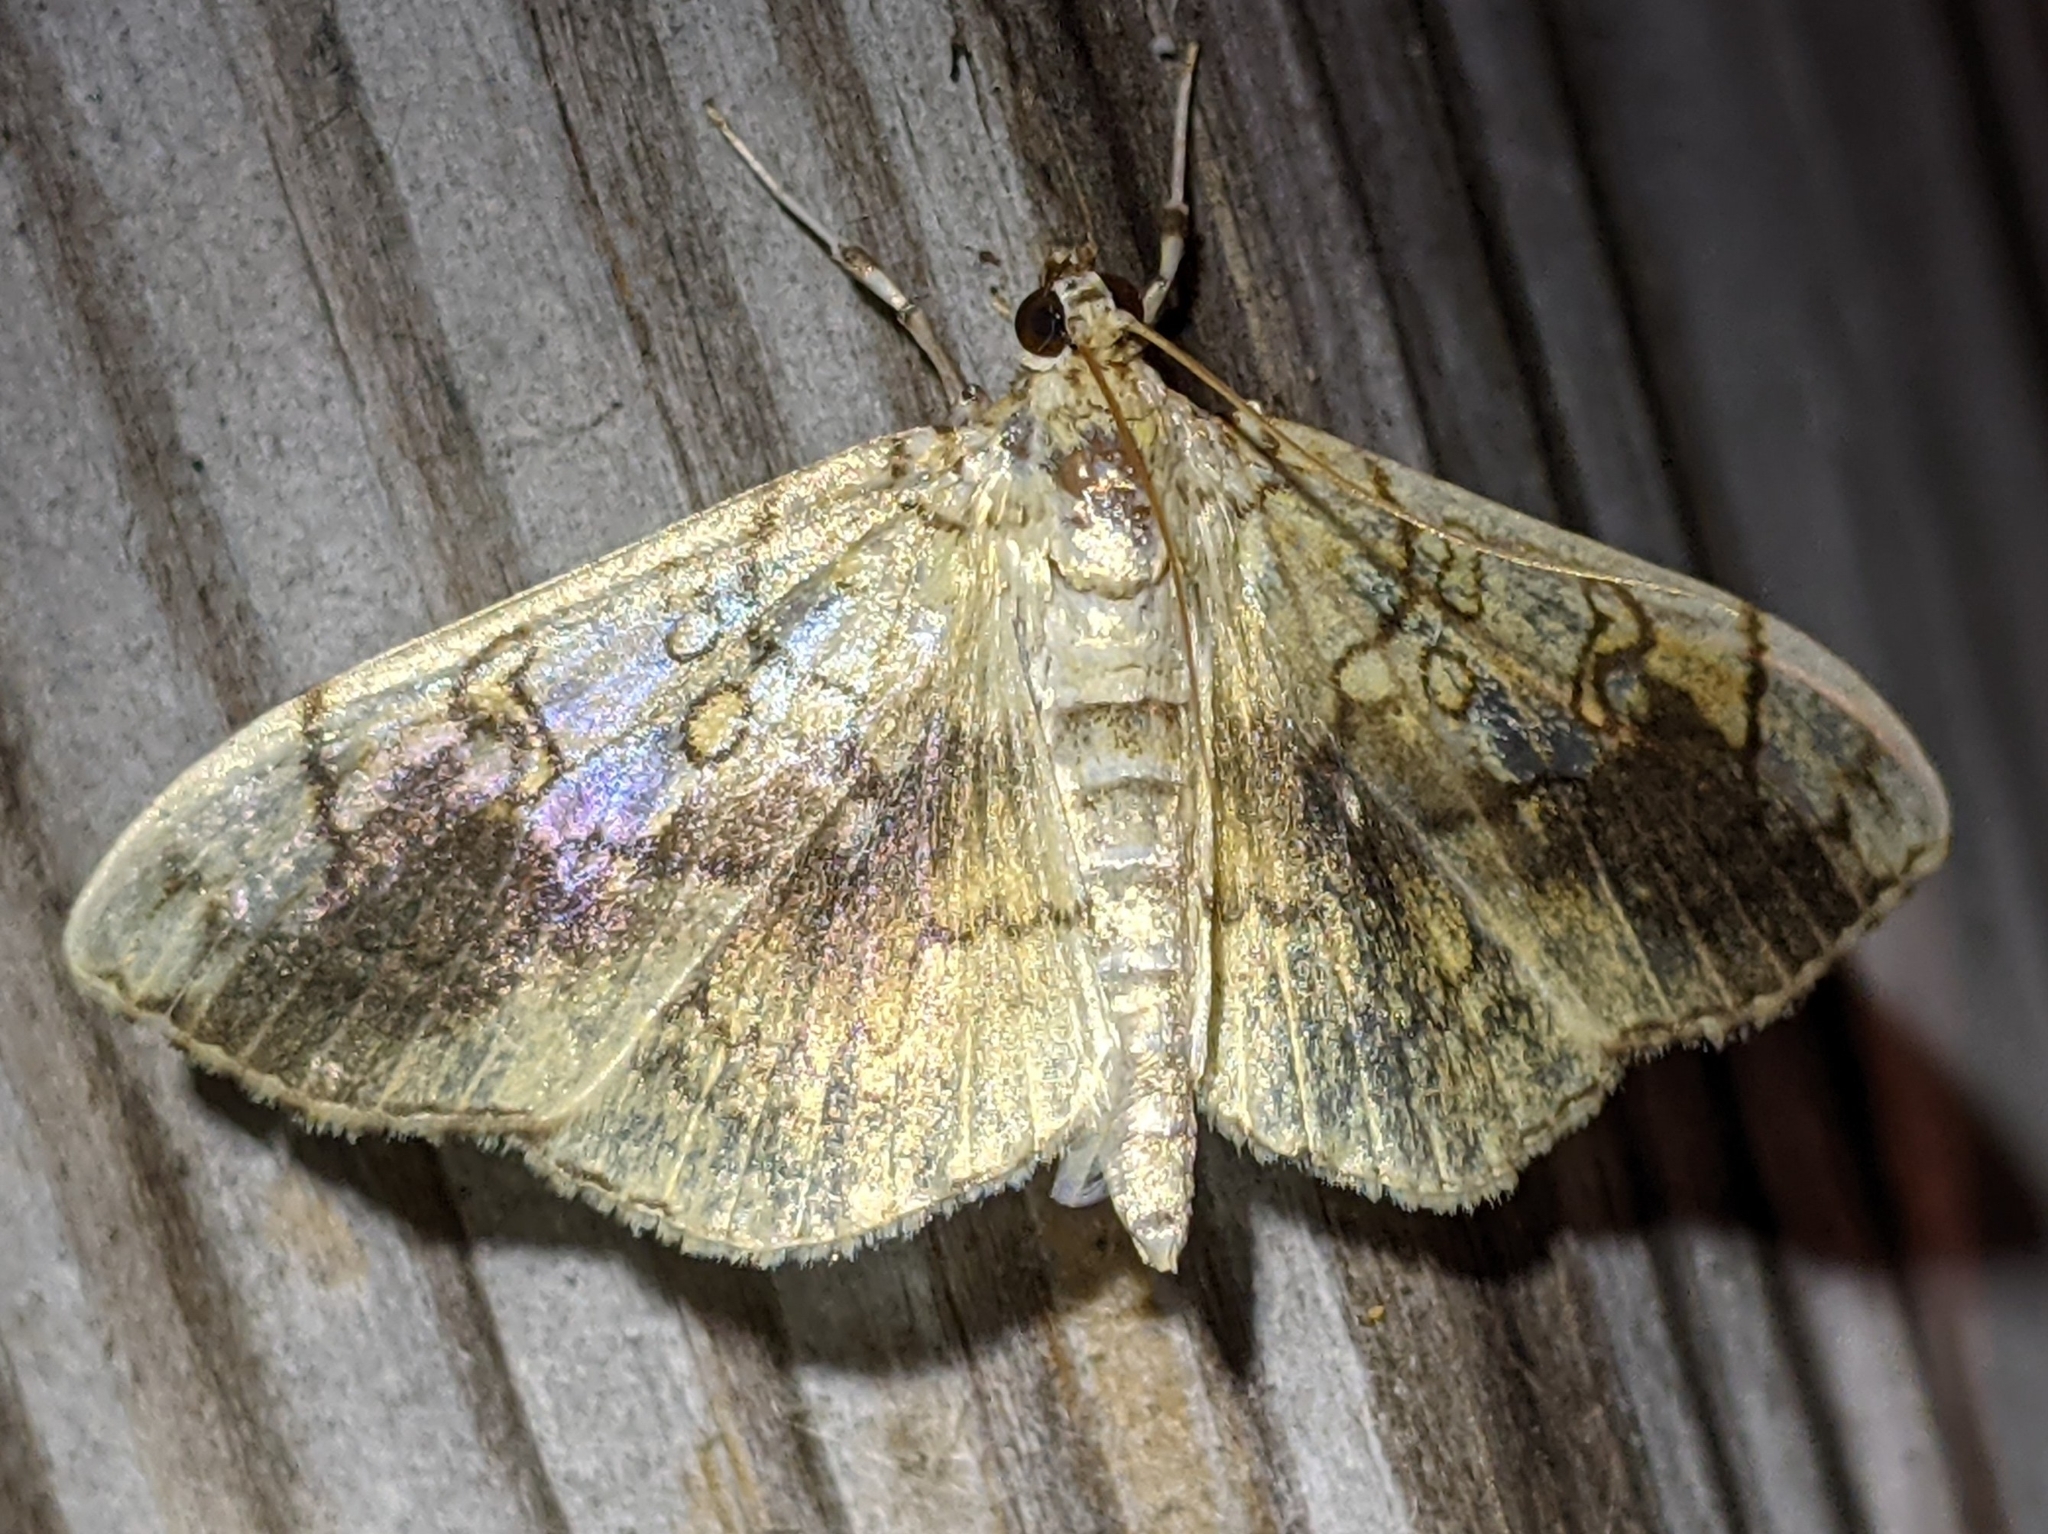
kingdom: Animalia
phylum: Arthropoda
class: Insecta
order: Lepidoptera
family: Crambidae
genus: Pantographa
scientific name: Pantographa limata
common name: Basswood leafroller moth
